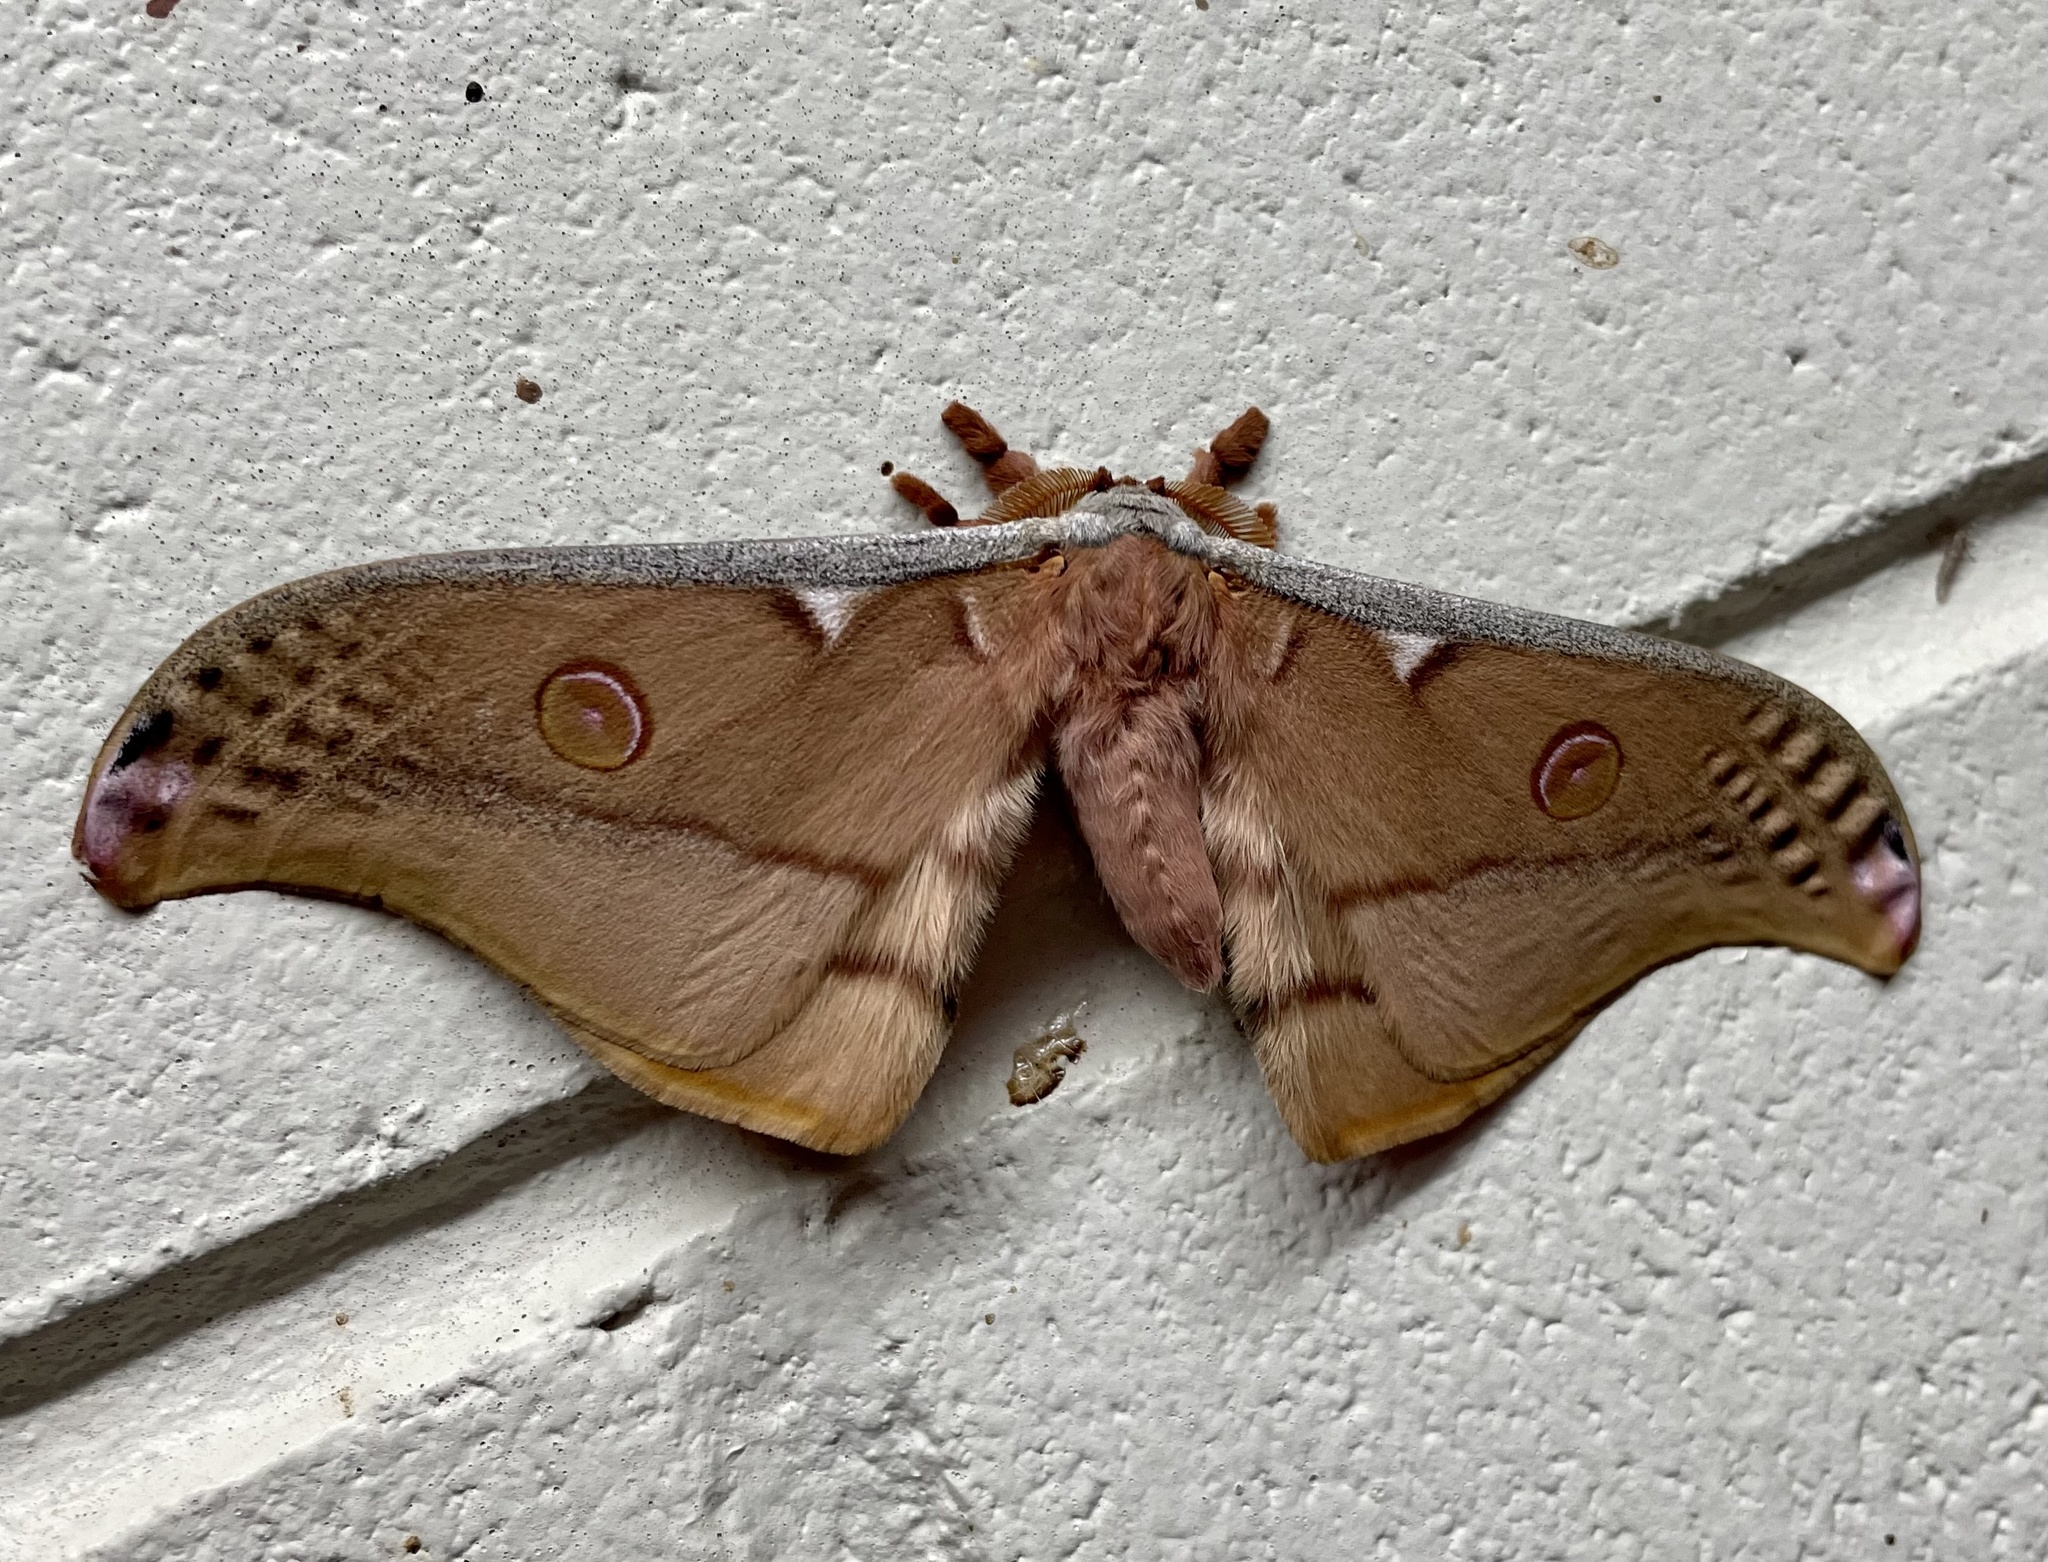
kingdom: Animalia
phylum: Arthropoda
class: Insecta
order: Lepidoptera
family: Saturniidae
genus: Opodiphthera
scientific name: Opodiphthera
